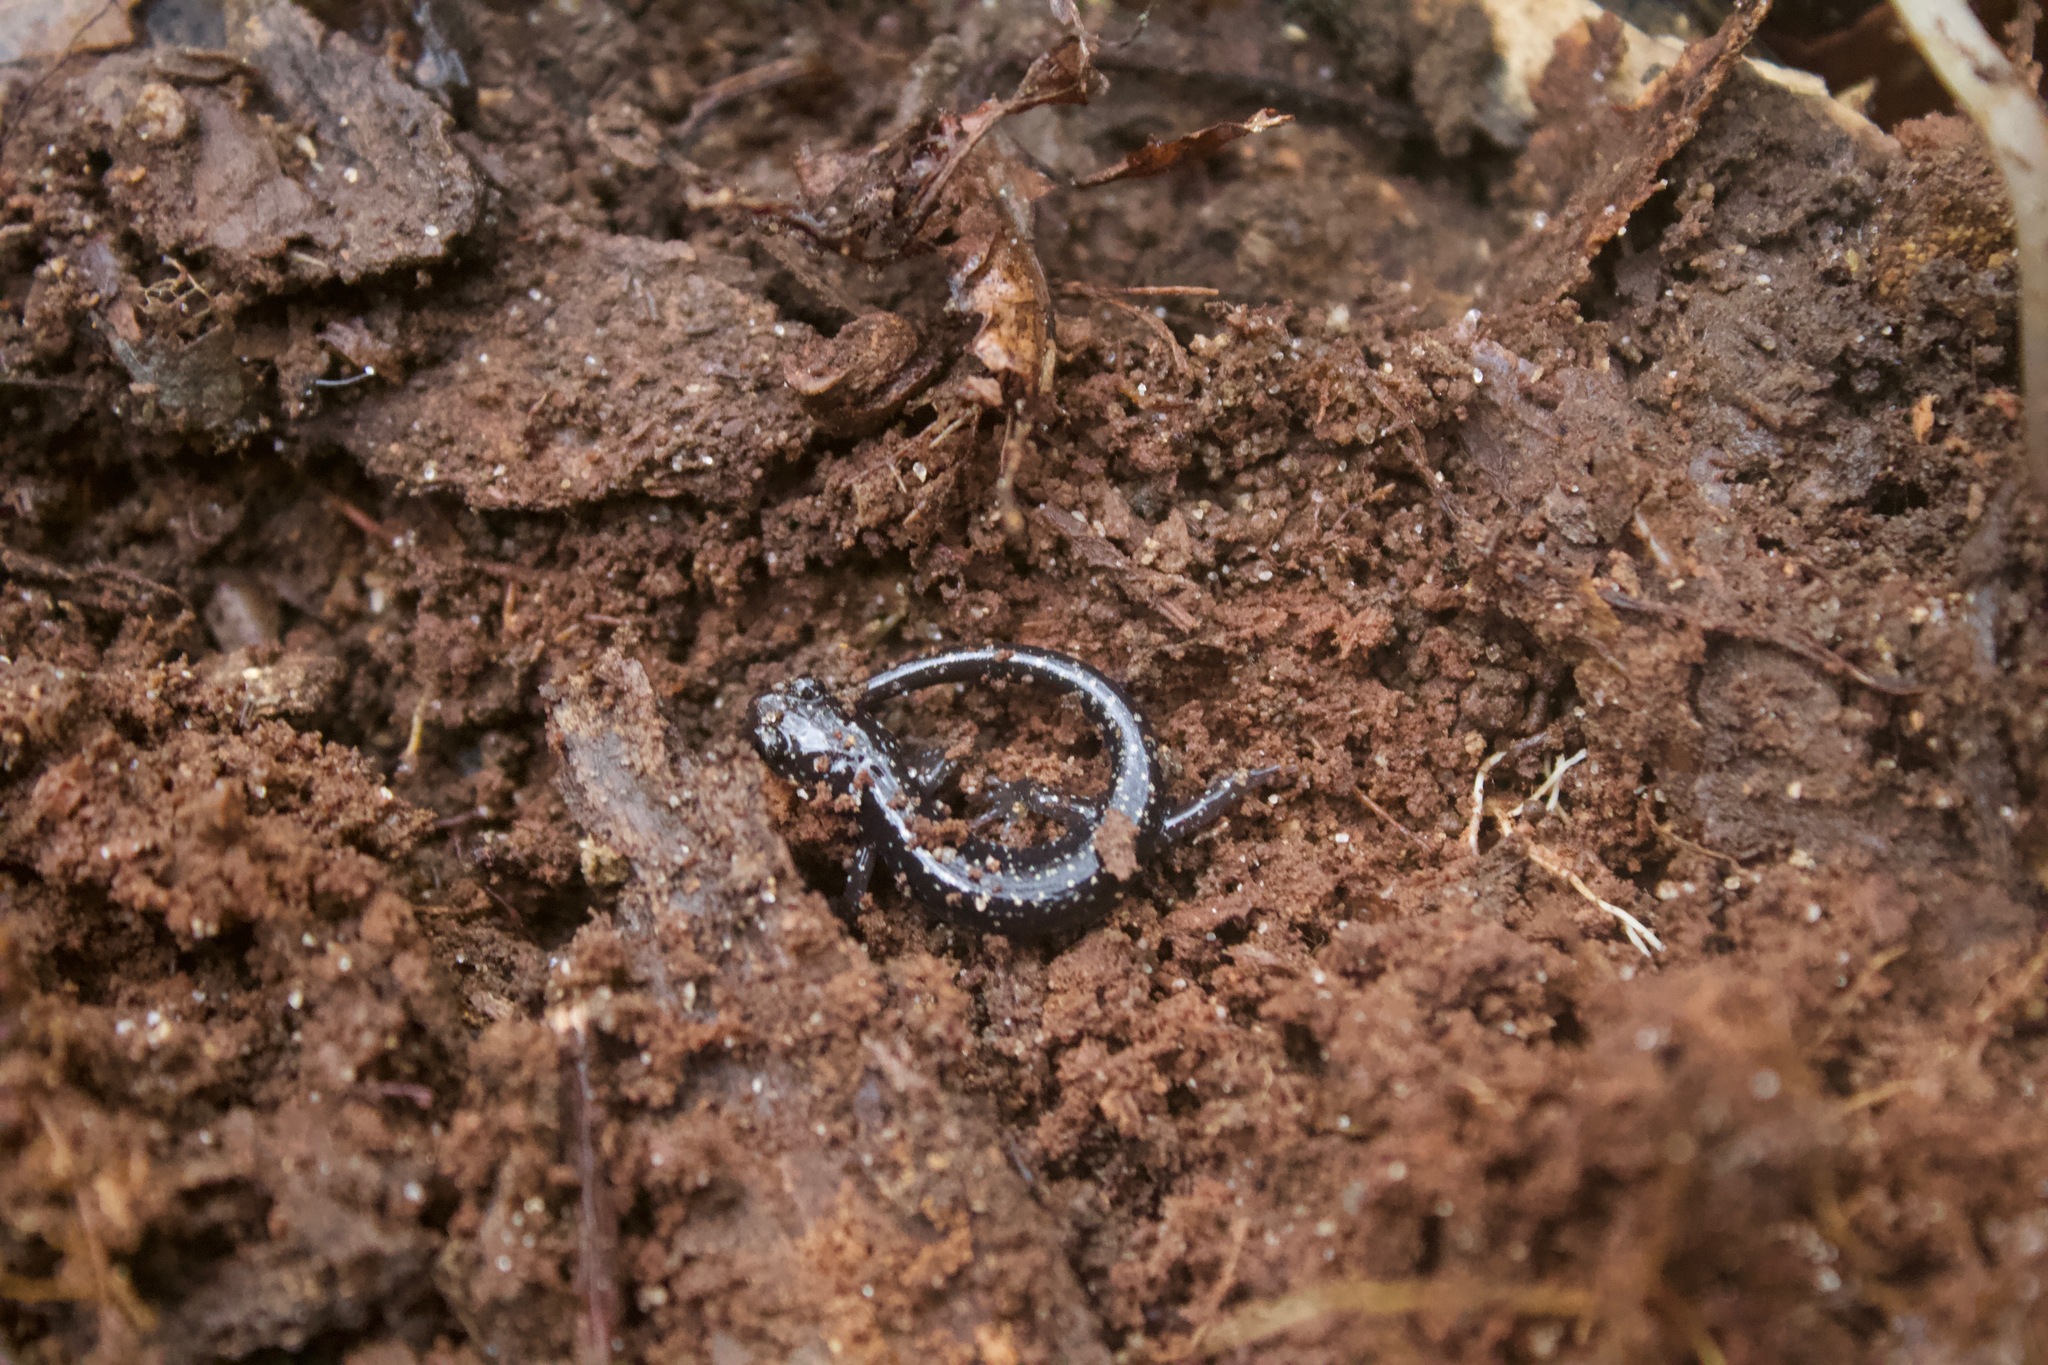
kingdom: Animalia
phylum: Chordata
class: Amphibia
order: Caudata
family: Plethodontidae
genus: Plethodon
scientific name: Plethodon mississippi
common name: Mississippi slimy salamander
